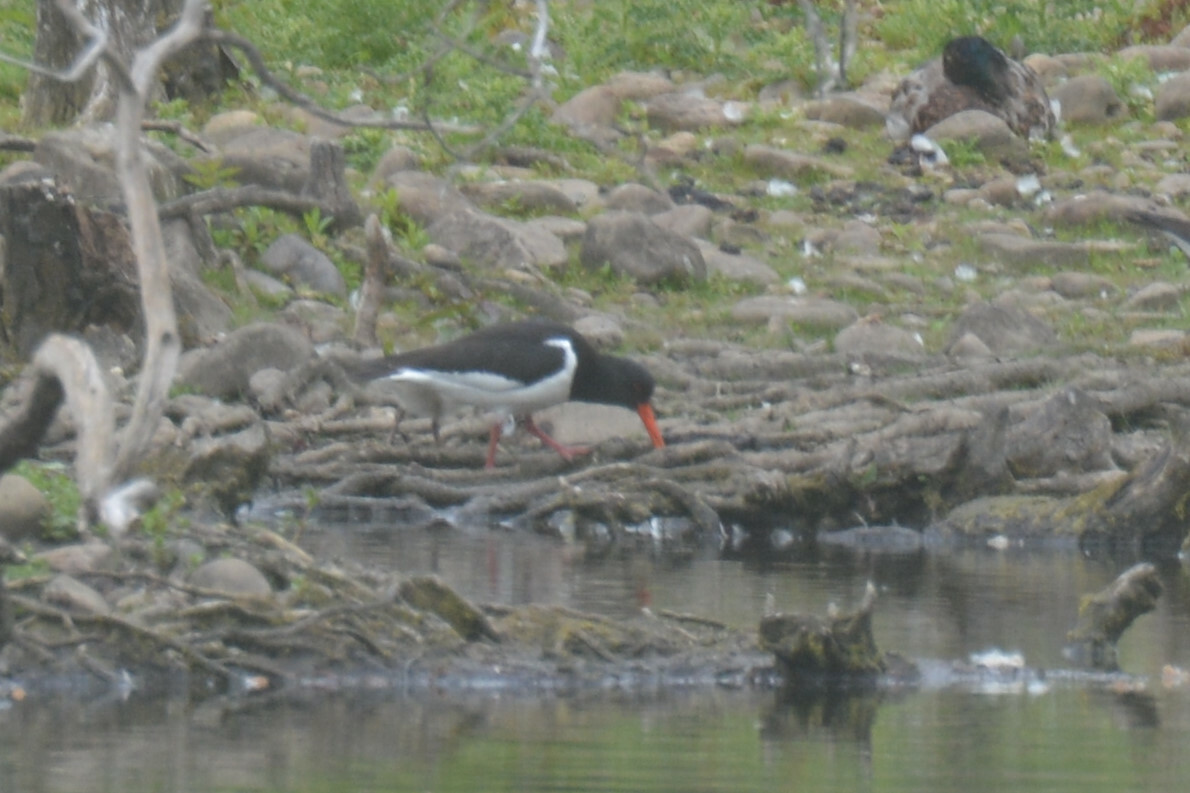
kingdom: Animalia
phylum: Chordata
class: Aves
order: Charadriiformes
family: Haematopodidae
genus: Haematopus
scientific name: Haematopus ostralegus
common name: Eurasian oystercatcher
